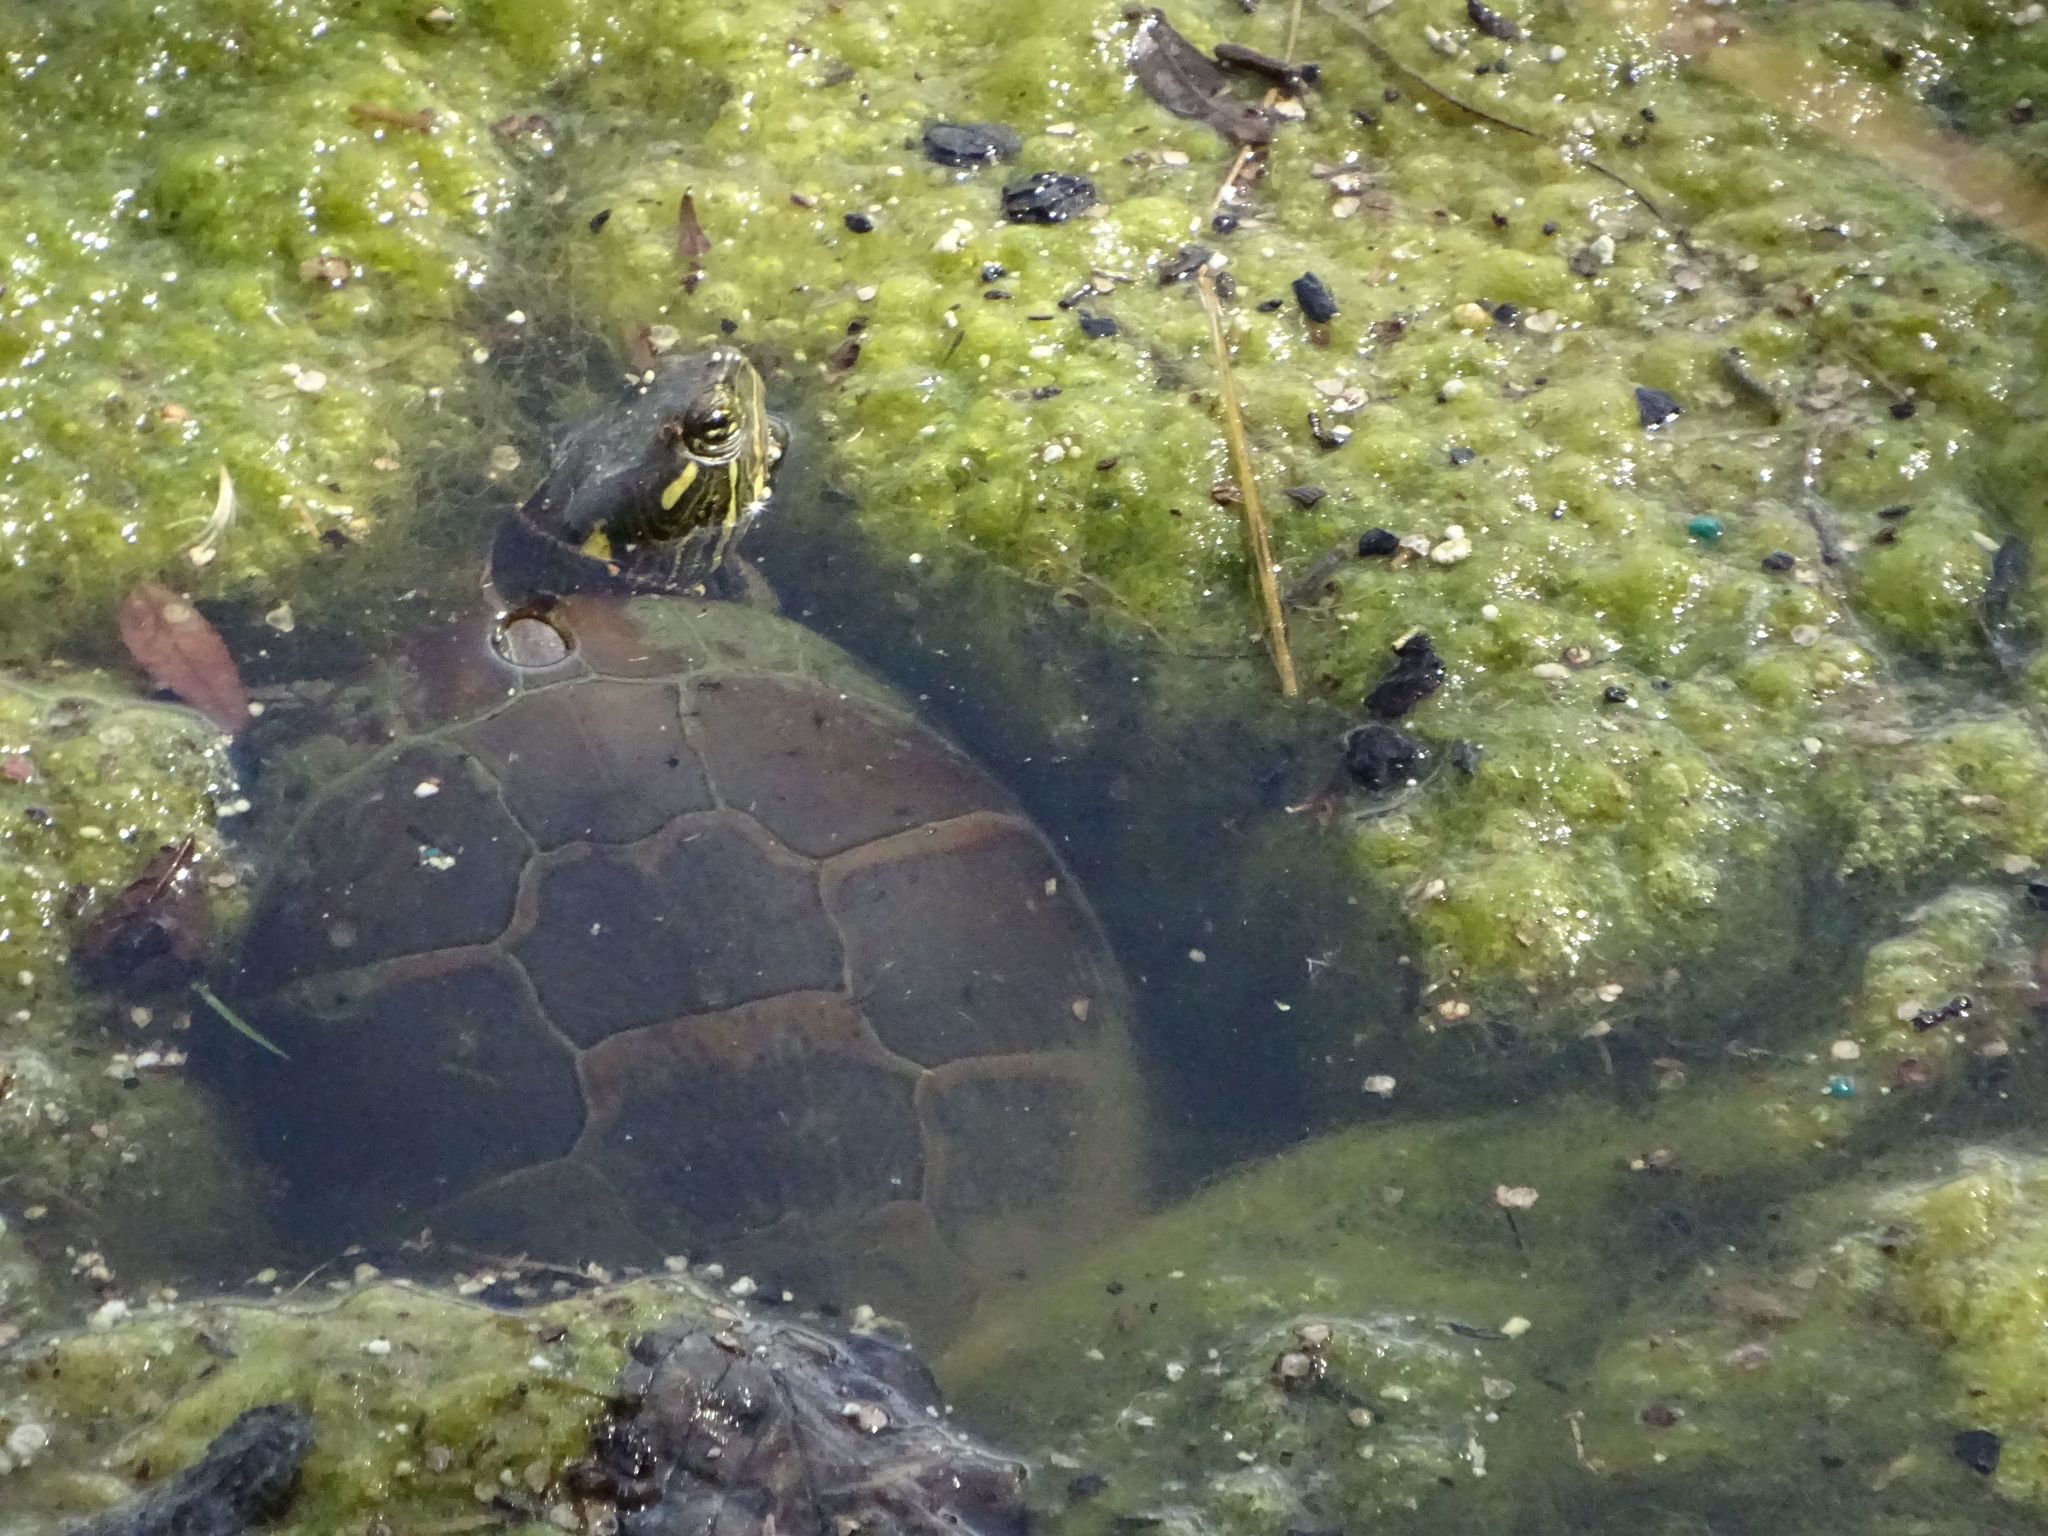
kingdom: Animalia
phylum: Chordata
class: Testudines
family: Emydidae
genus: Chrysemys
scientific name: Chrysemys picta
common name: Painted turtle
